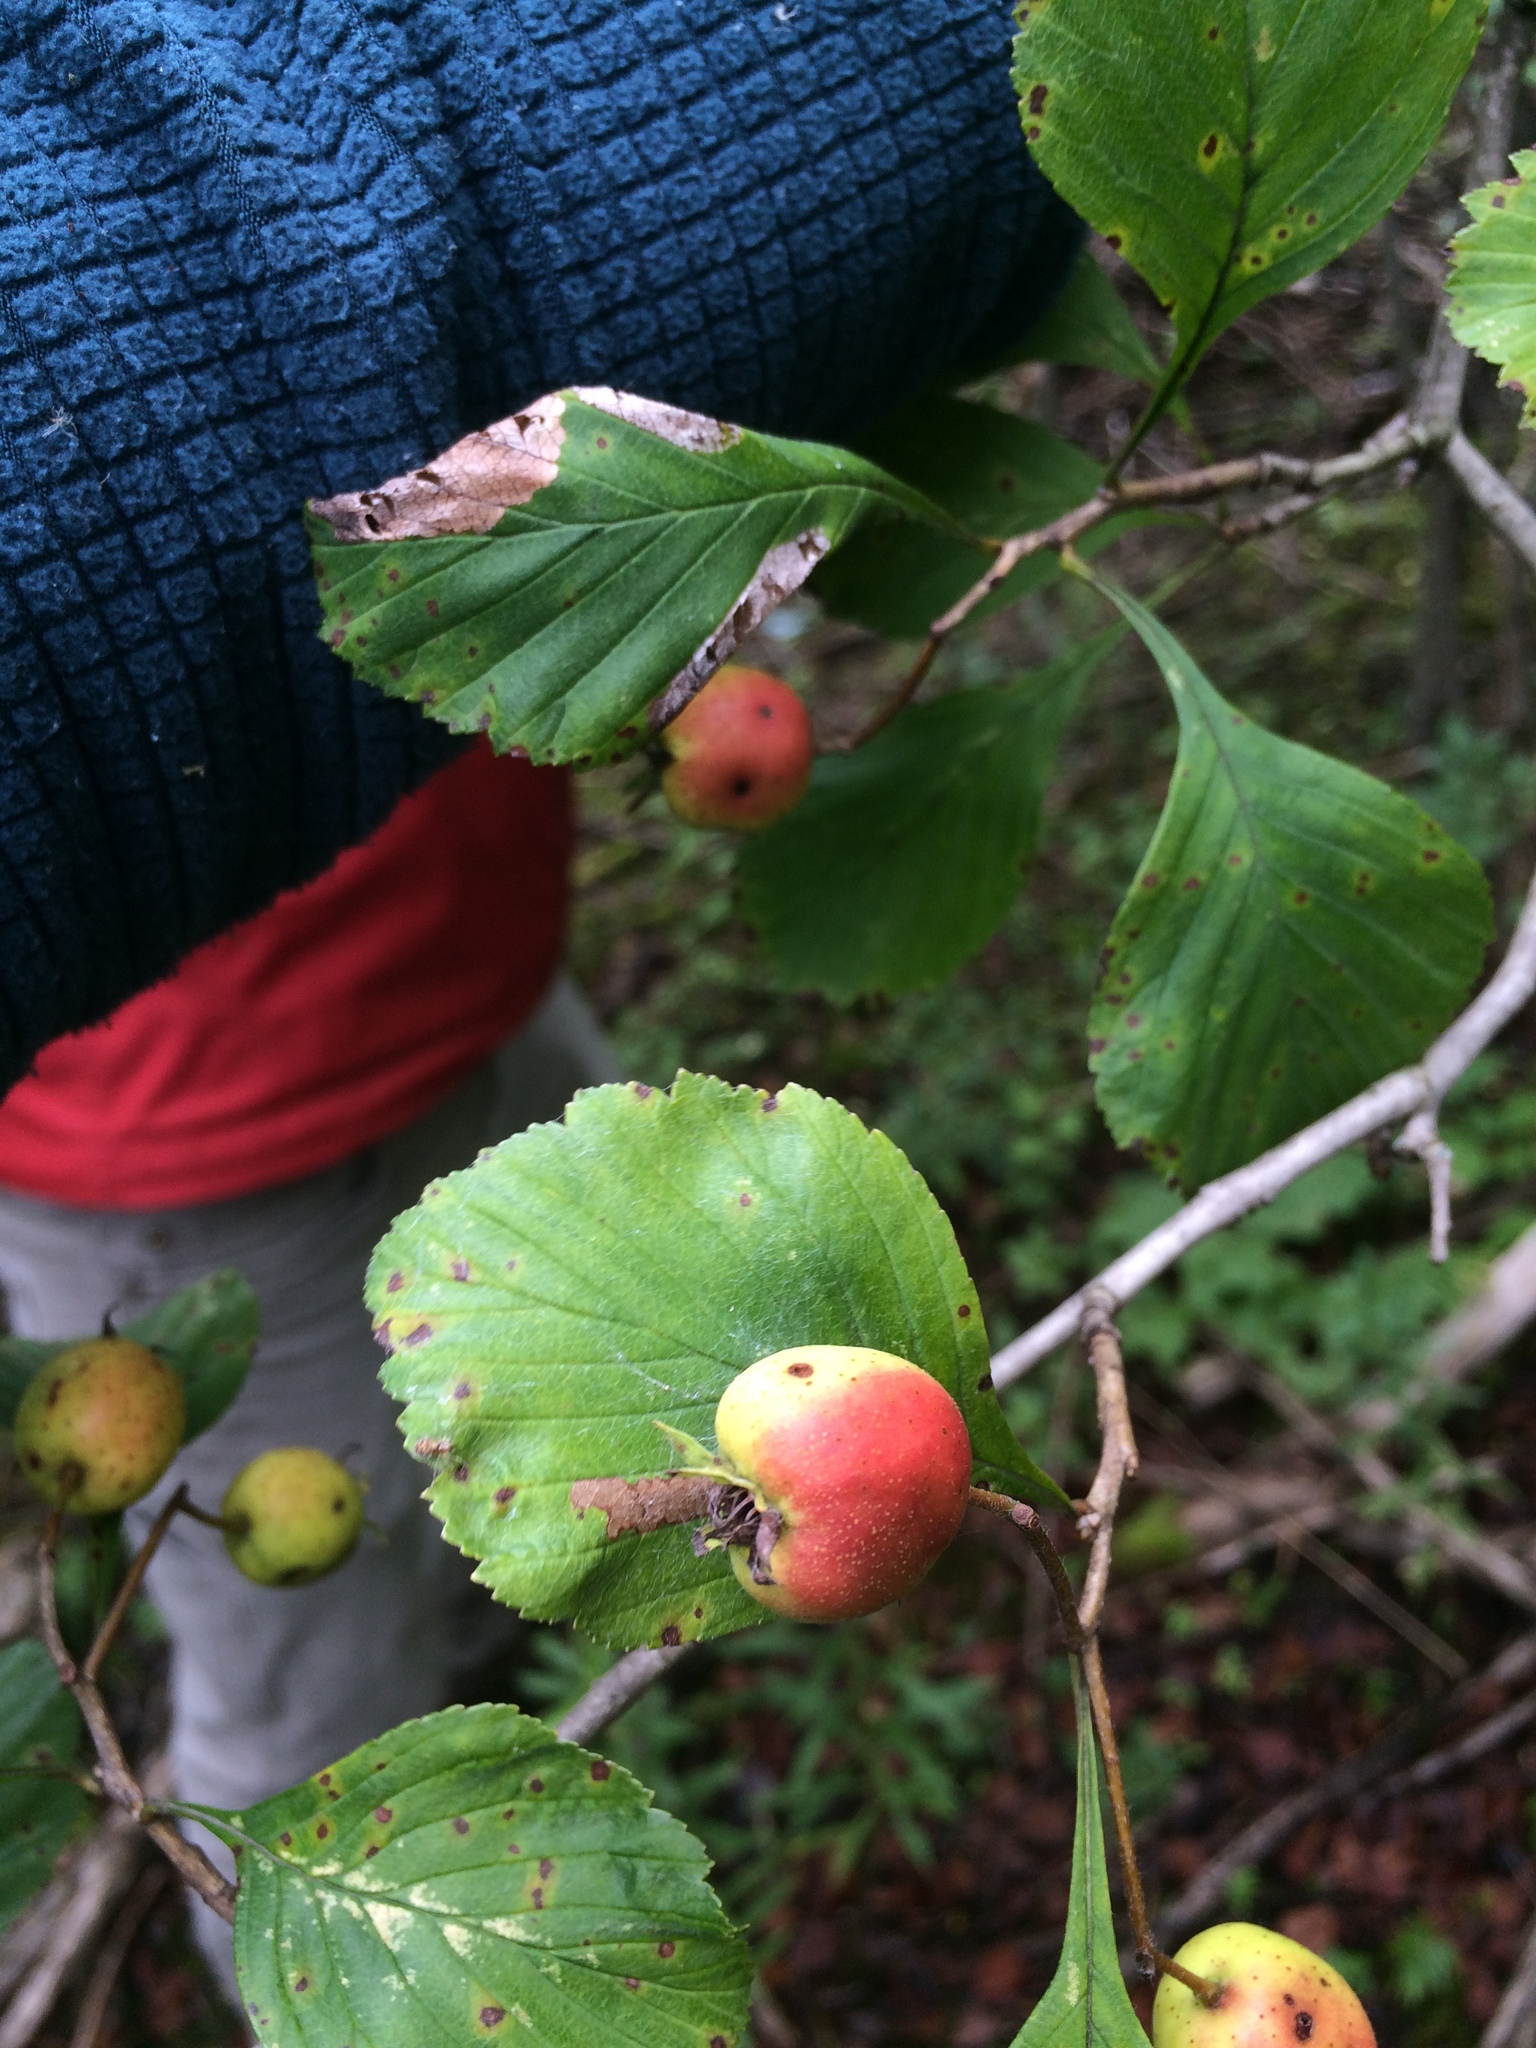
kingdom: Plantae
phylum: Tracheophyta
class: Magnoliopsida
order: Rosales
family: Rosaceae
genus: Crataegus
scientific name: Crataegus punctata
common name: Dotted hawthorn
